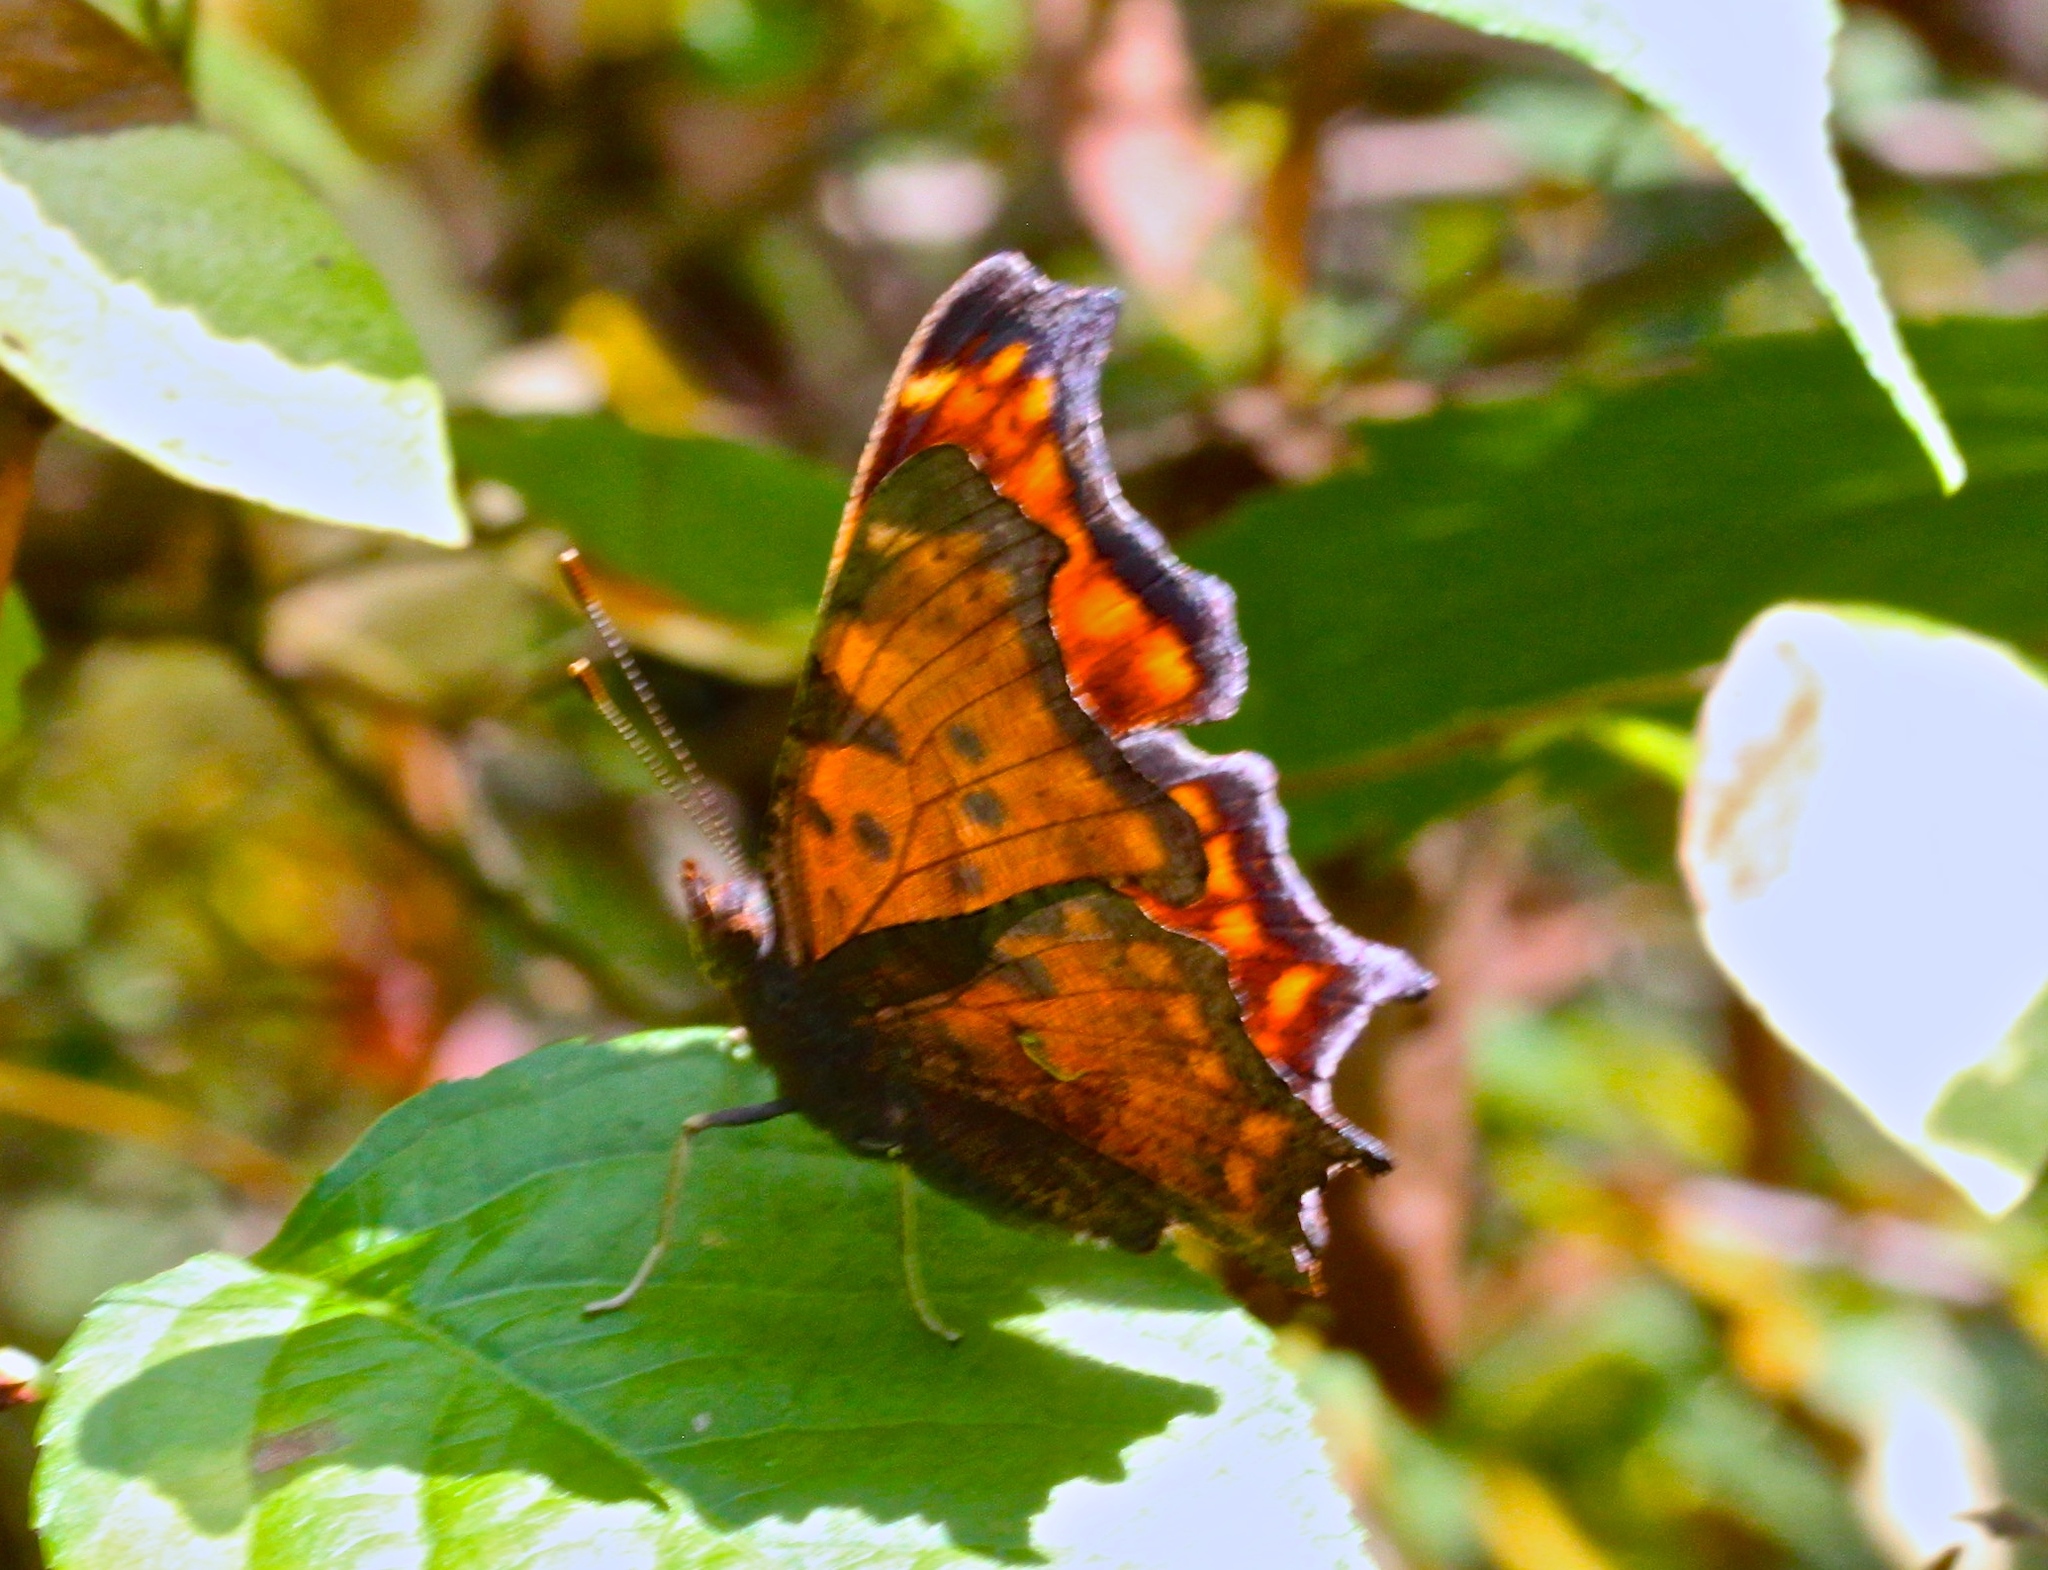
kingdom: Animalia
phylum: Arthropoda
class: Insecta
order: Lepidoptera
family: Nymphalidae
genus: Polygonia
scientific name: Polygonia comma
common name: Eastern comma
